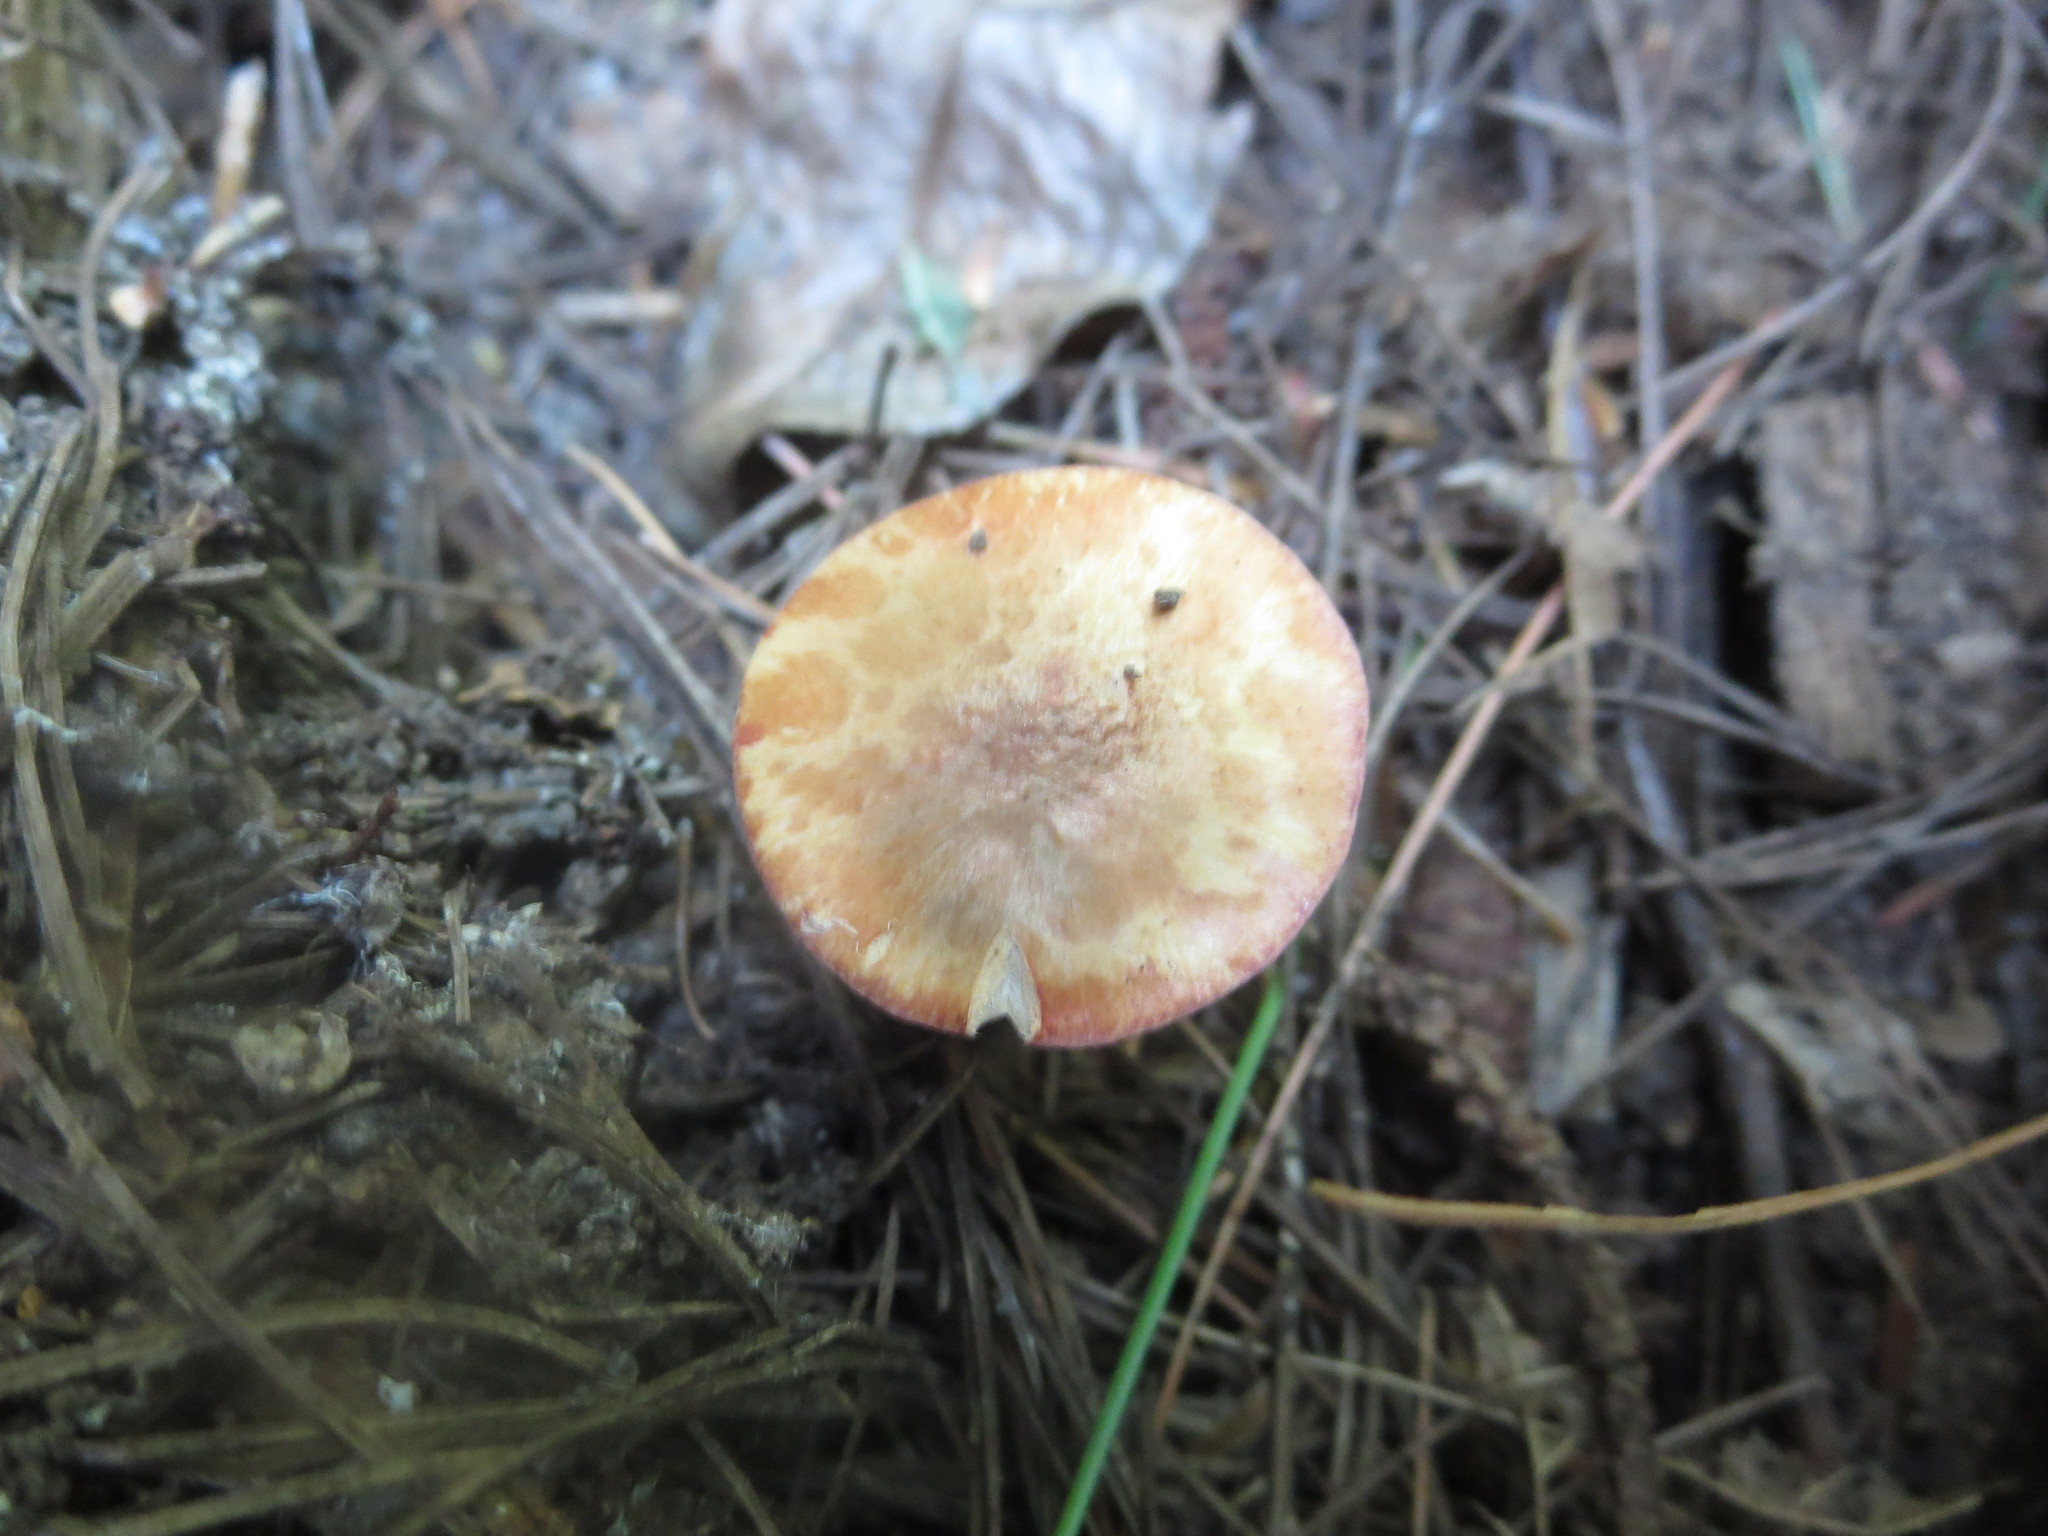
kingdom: Fungi
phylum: Basidiomycota
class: Agaricomycetes
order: Boletales
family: Gomphidiaceae
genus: Chroogomphus
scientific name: Chroogomphus ochraceus
